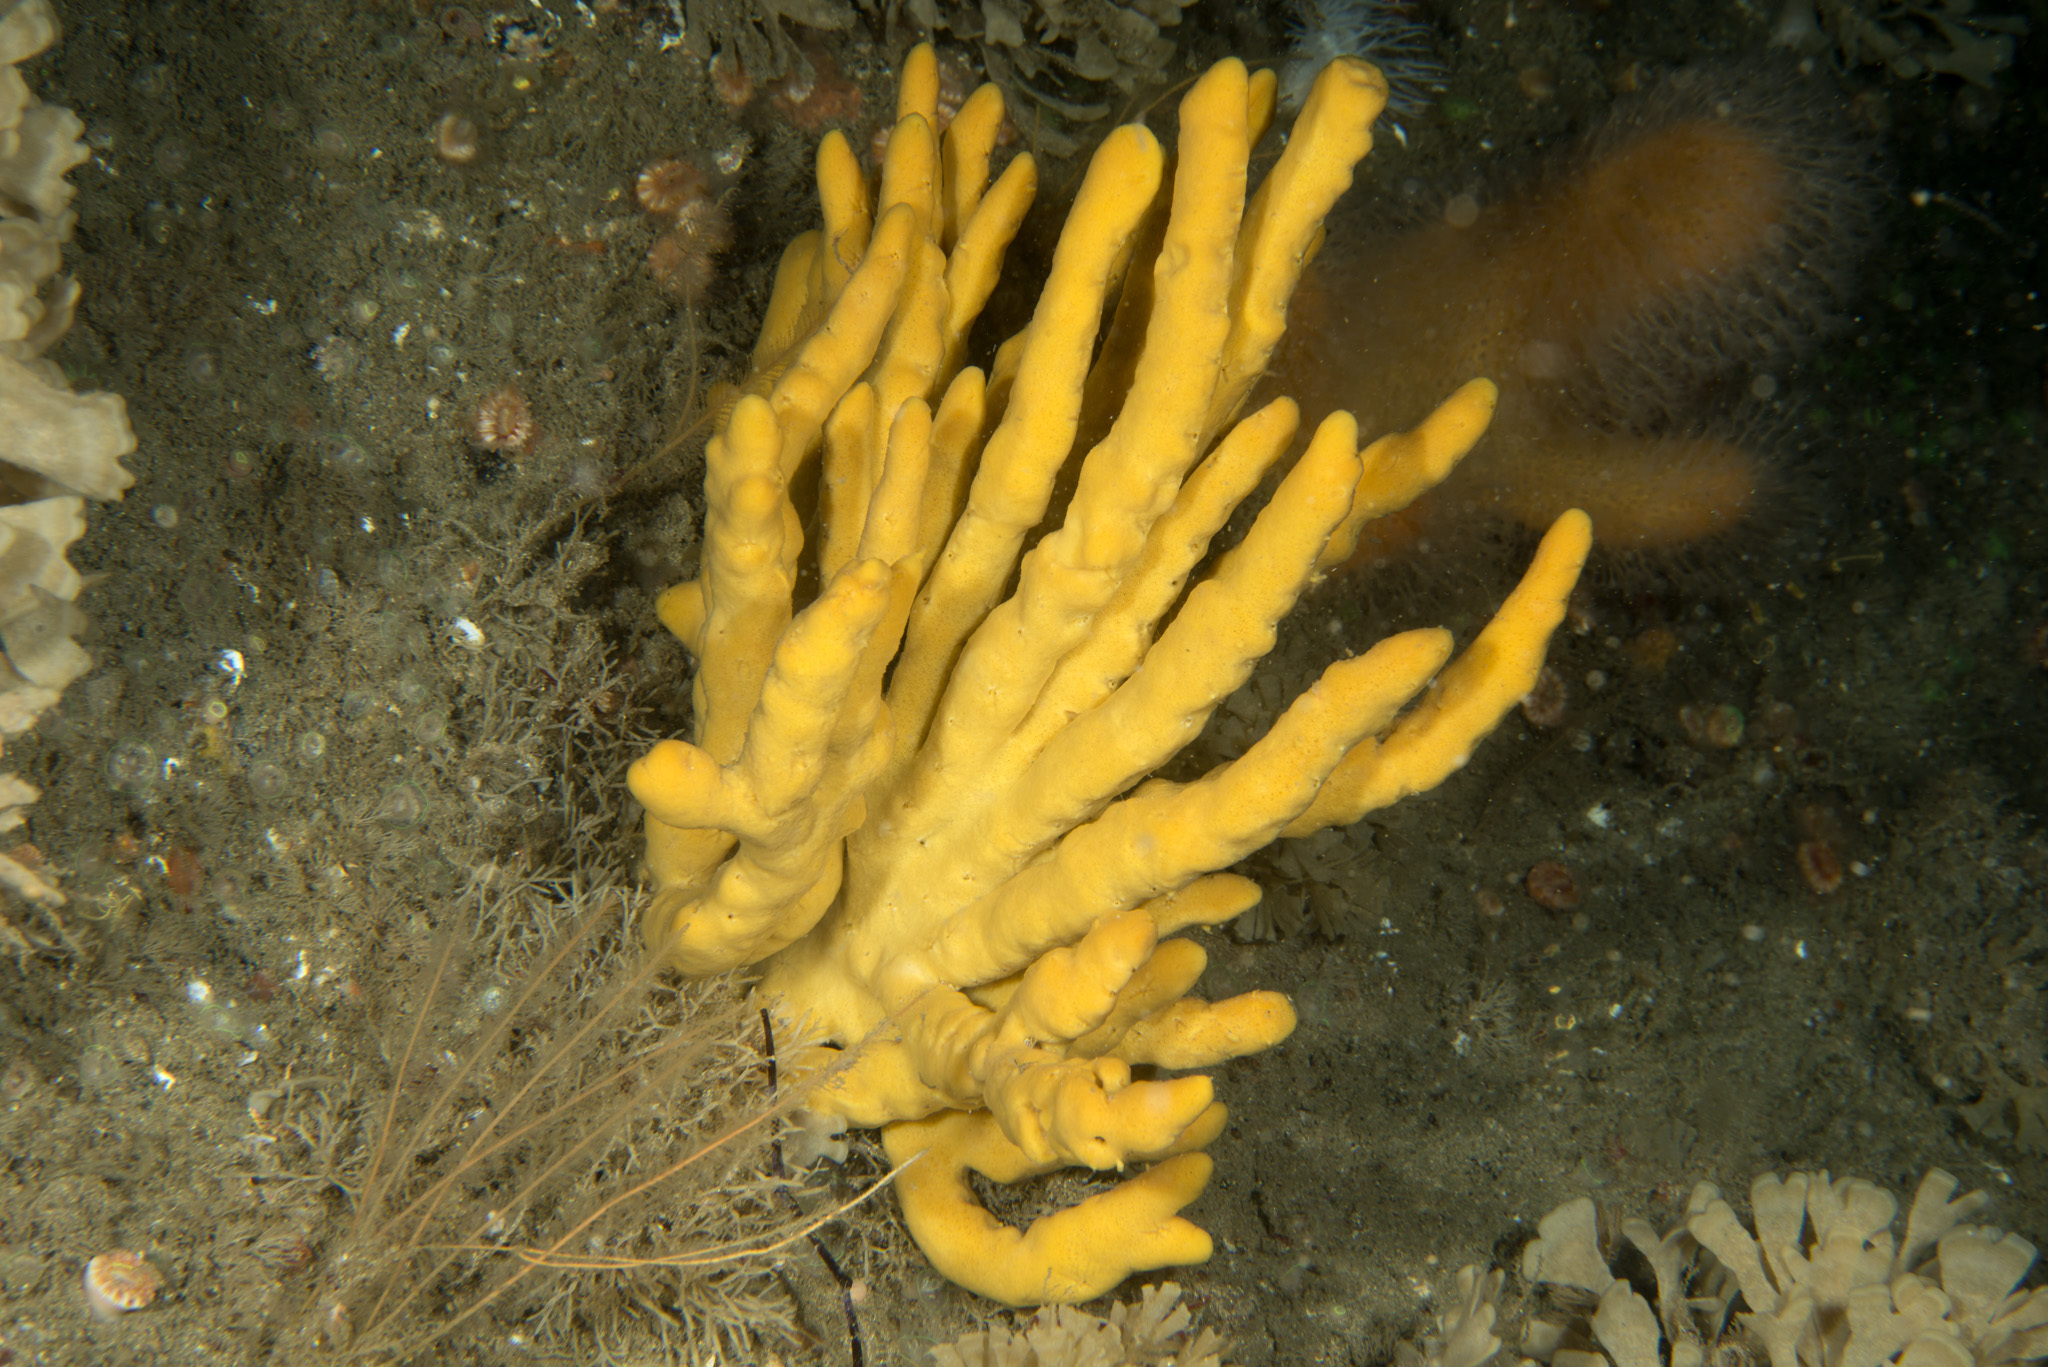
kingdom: Animalia
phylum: Porifera
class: Demospongiae
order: Axinellida
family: Axinellidae
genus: Axinella
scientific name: Axinella dissimilis
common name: Branching sponge
